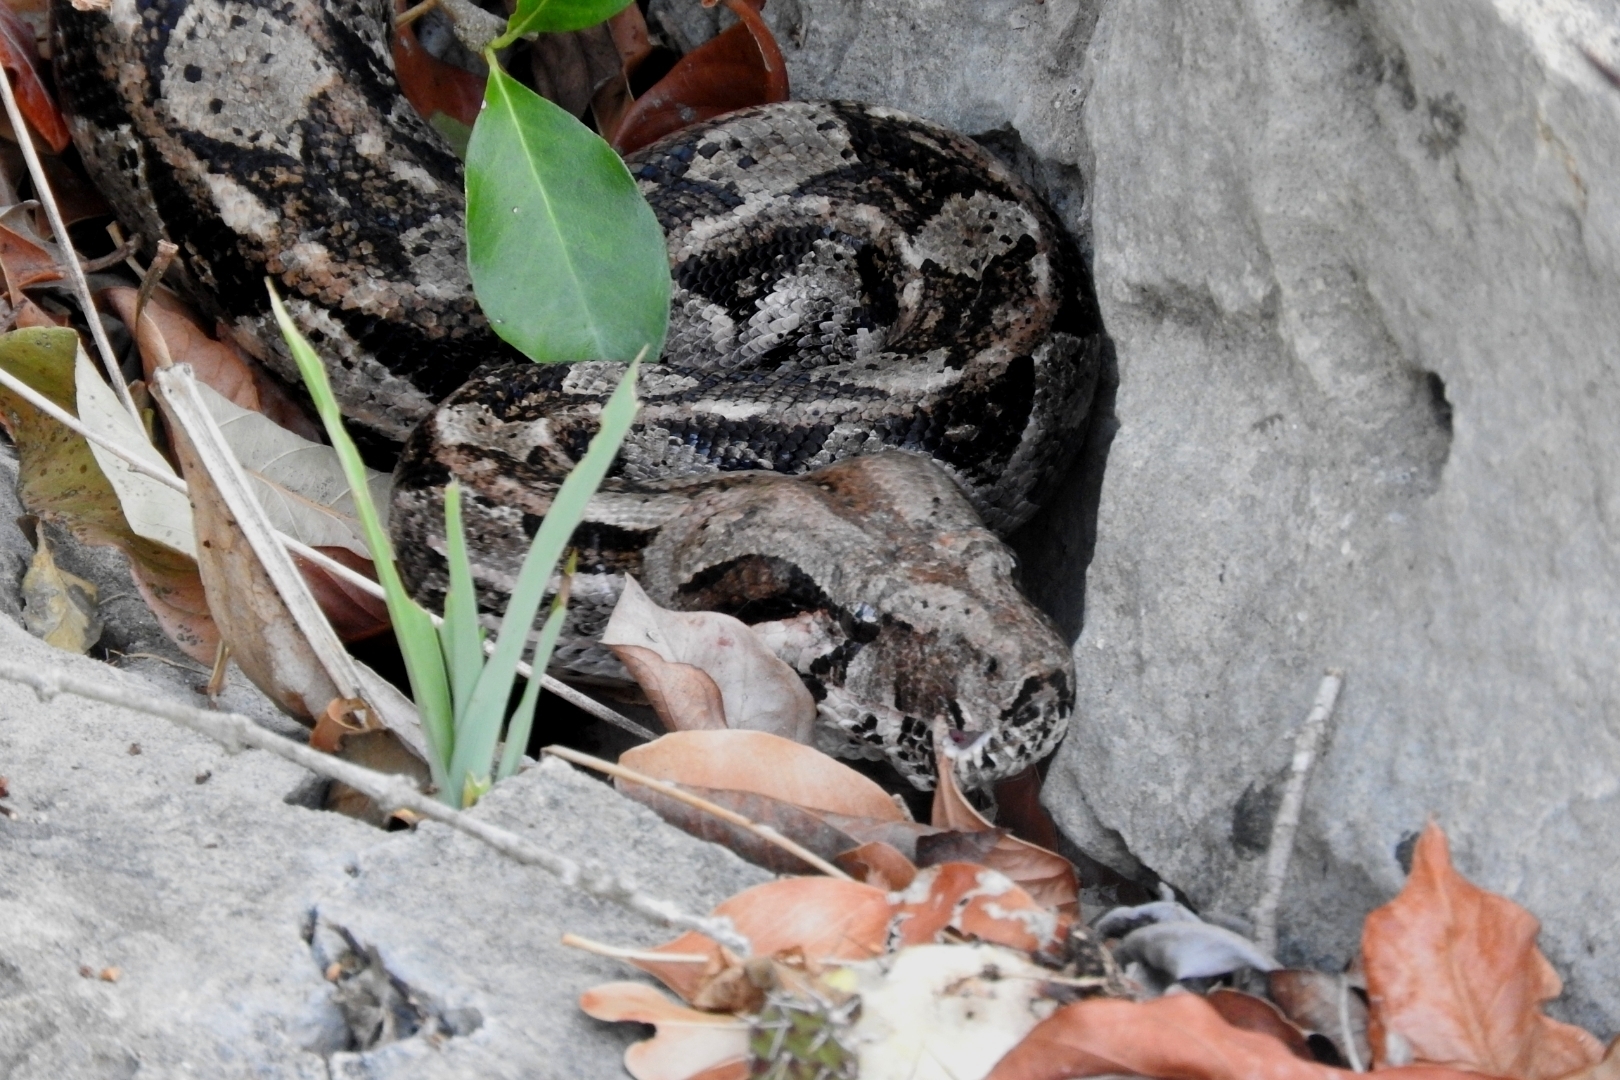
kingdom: Animalia
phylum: Chordata
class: Squamata
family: Boidae
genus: Boa
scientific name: Boa imperator
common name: Central american boa
